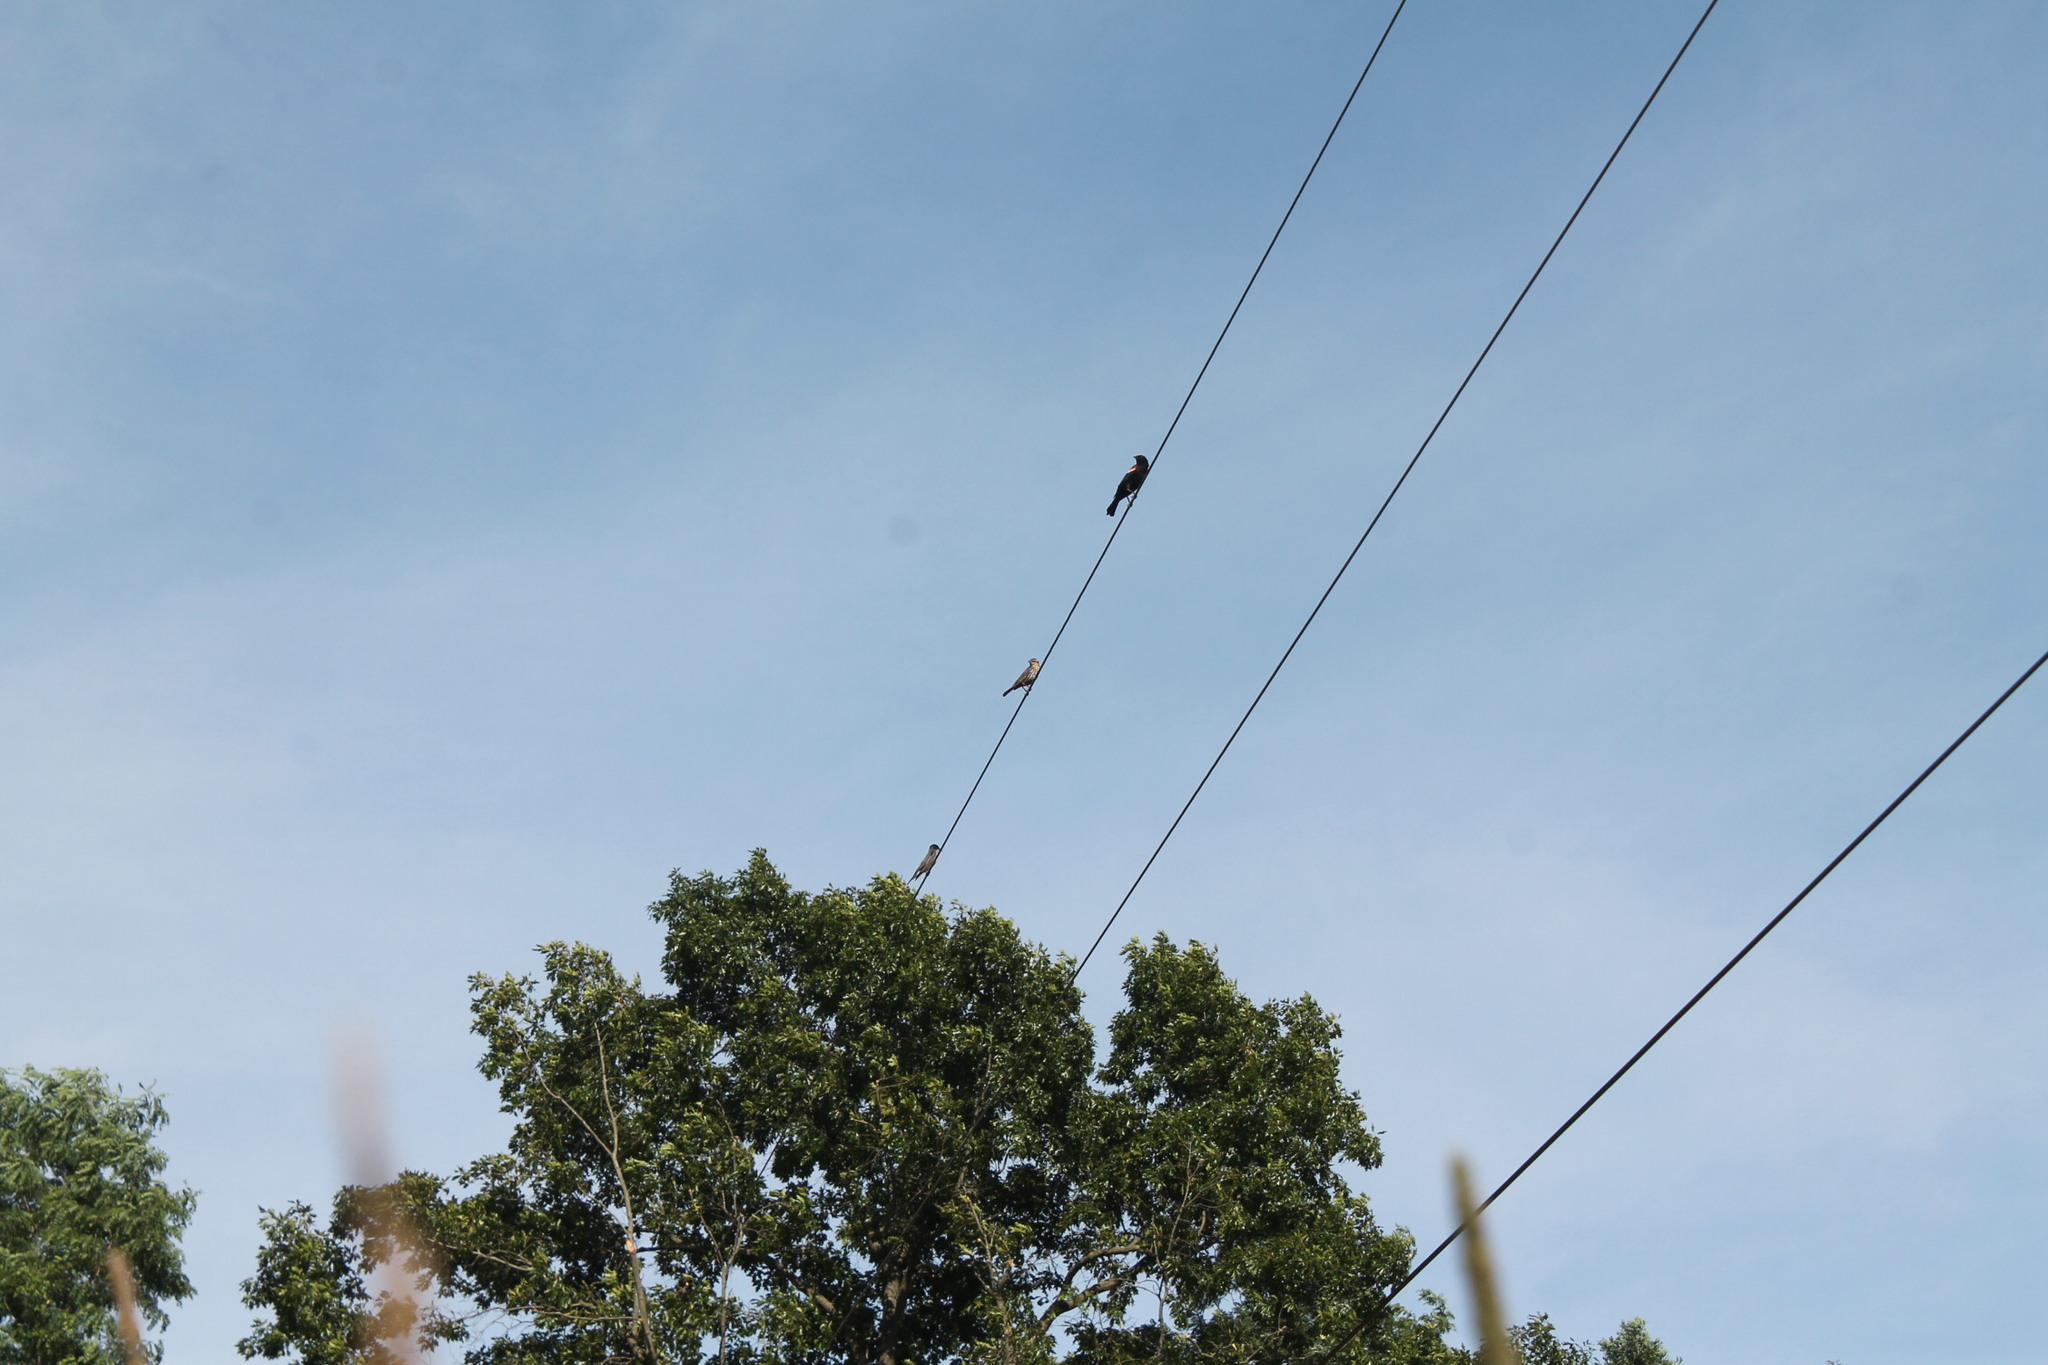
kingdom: Animalia
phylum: Chordata
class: Aves
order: Passeriformes
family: Icteridae
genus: Agelaius
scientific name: Agelaius phoeniceus
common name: Red-winged blackbird
